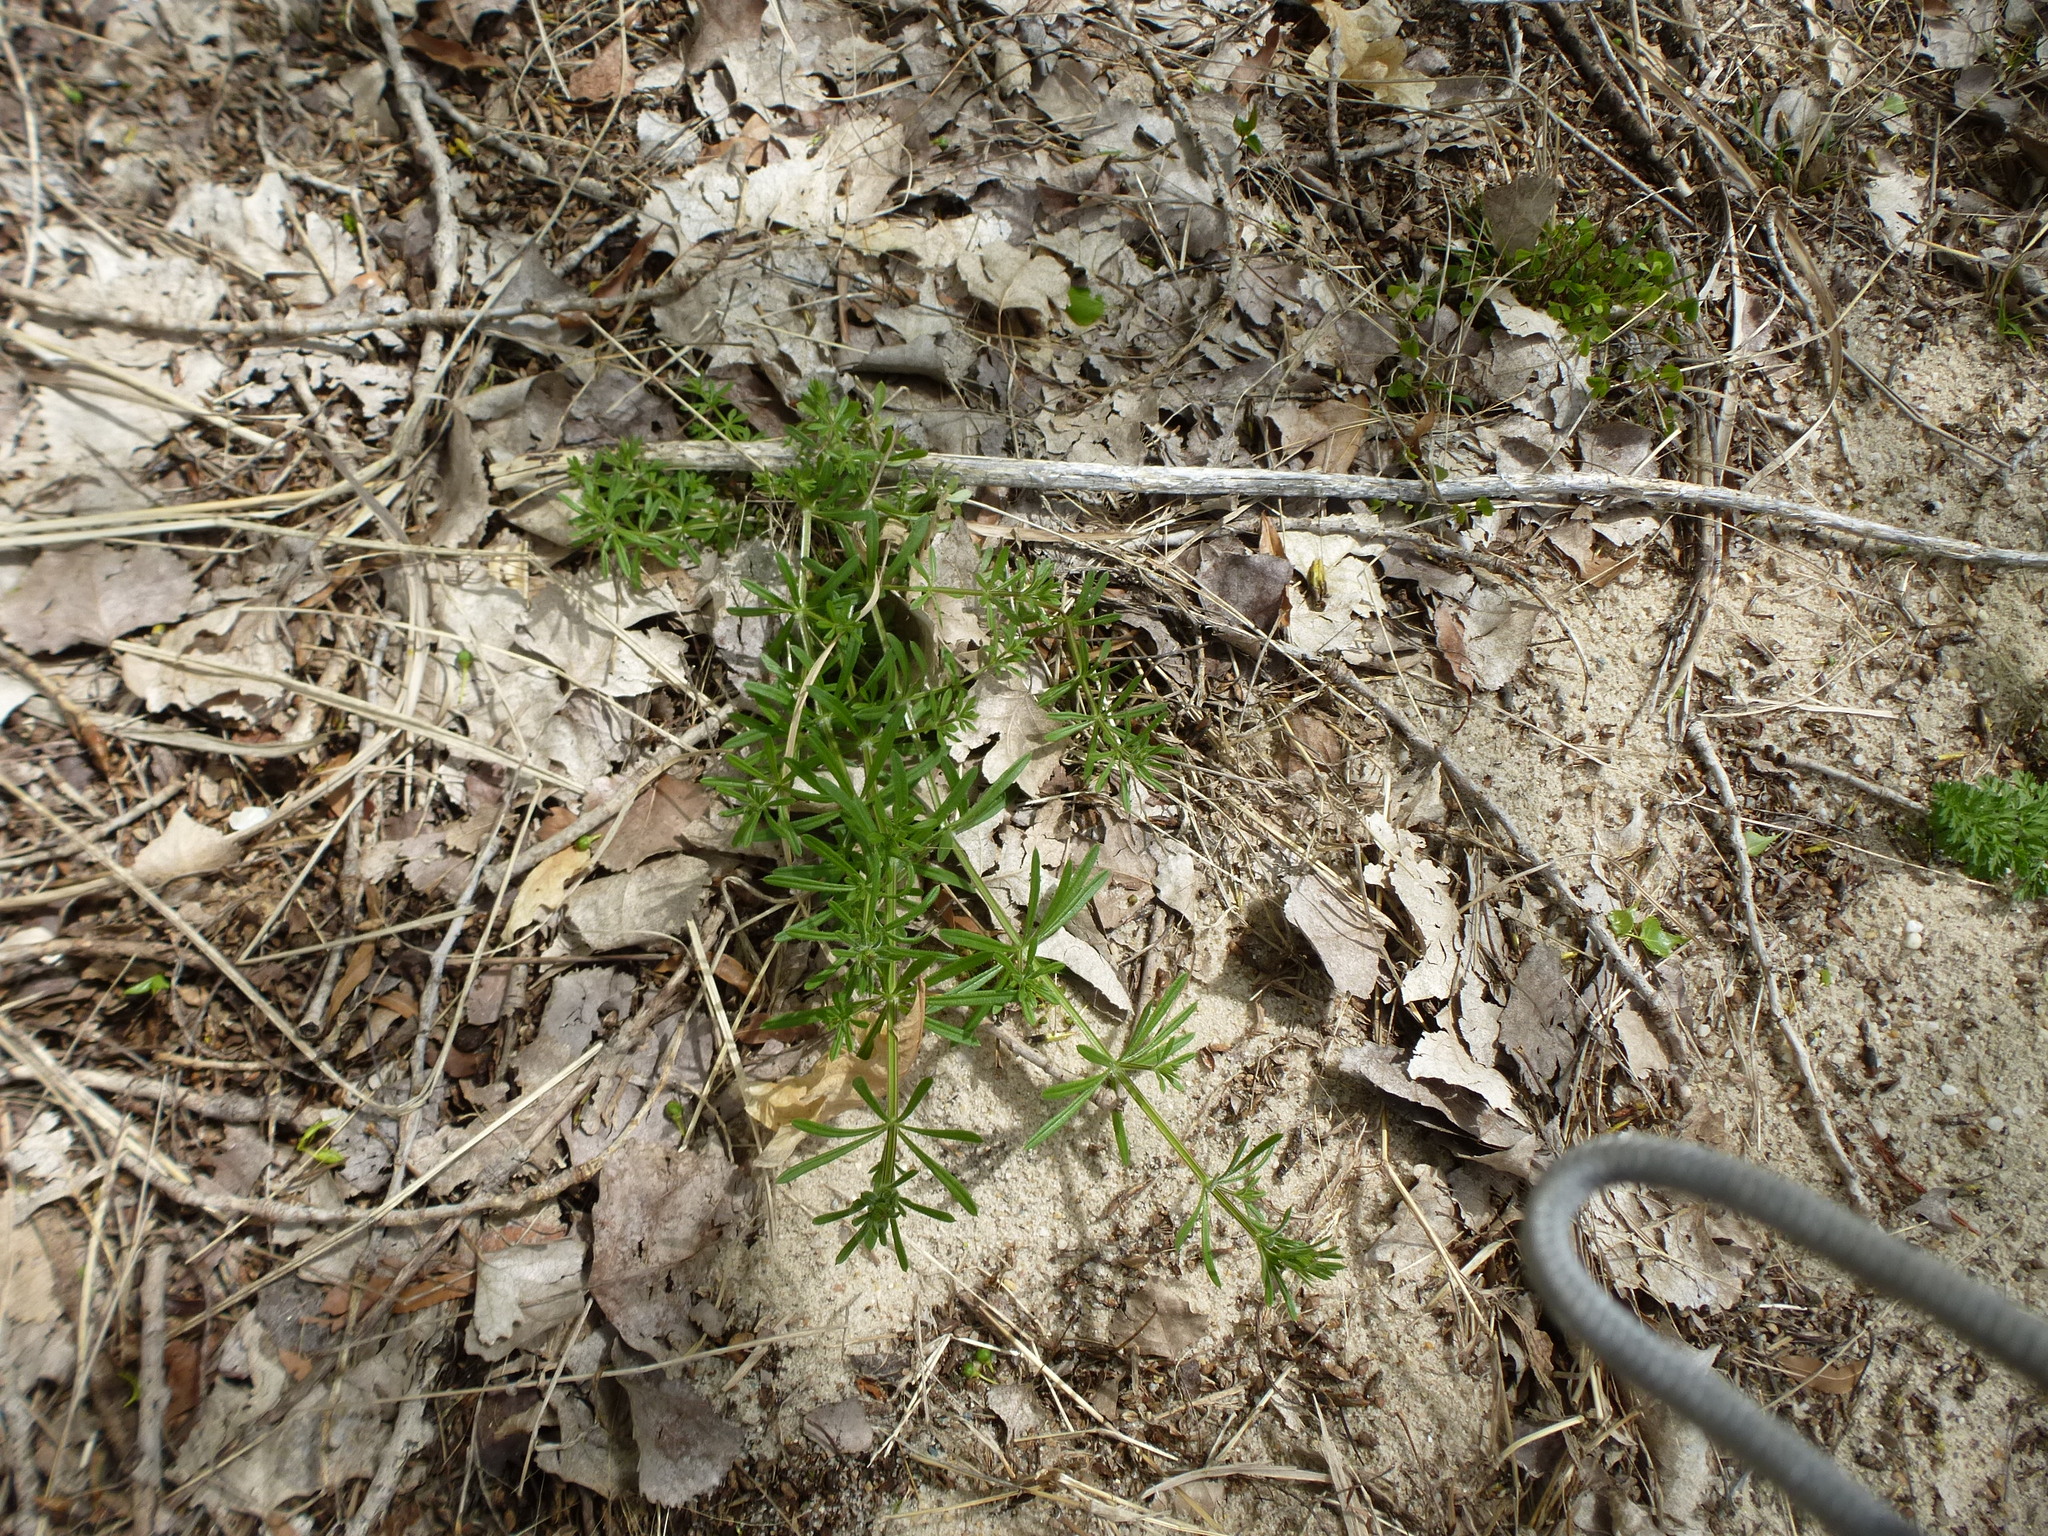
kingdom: Plantae
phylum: Tracheophyta
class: Magnoliopsida
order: Gentianales
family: Rubiaceae
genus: Galium
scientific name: Galium aparine
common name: Cleavers
